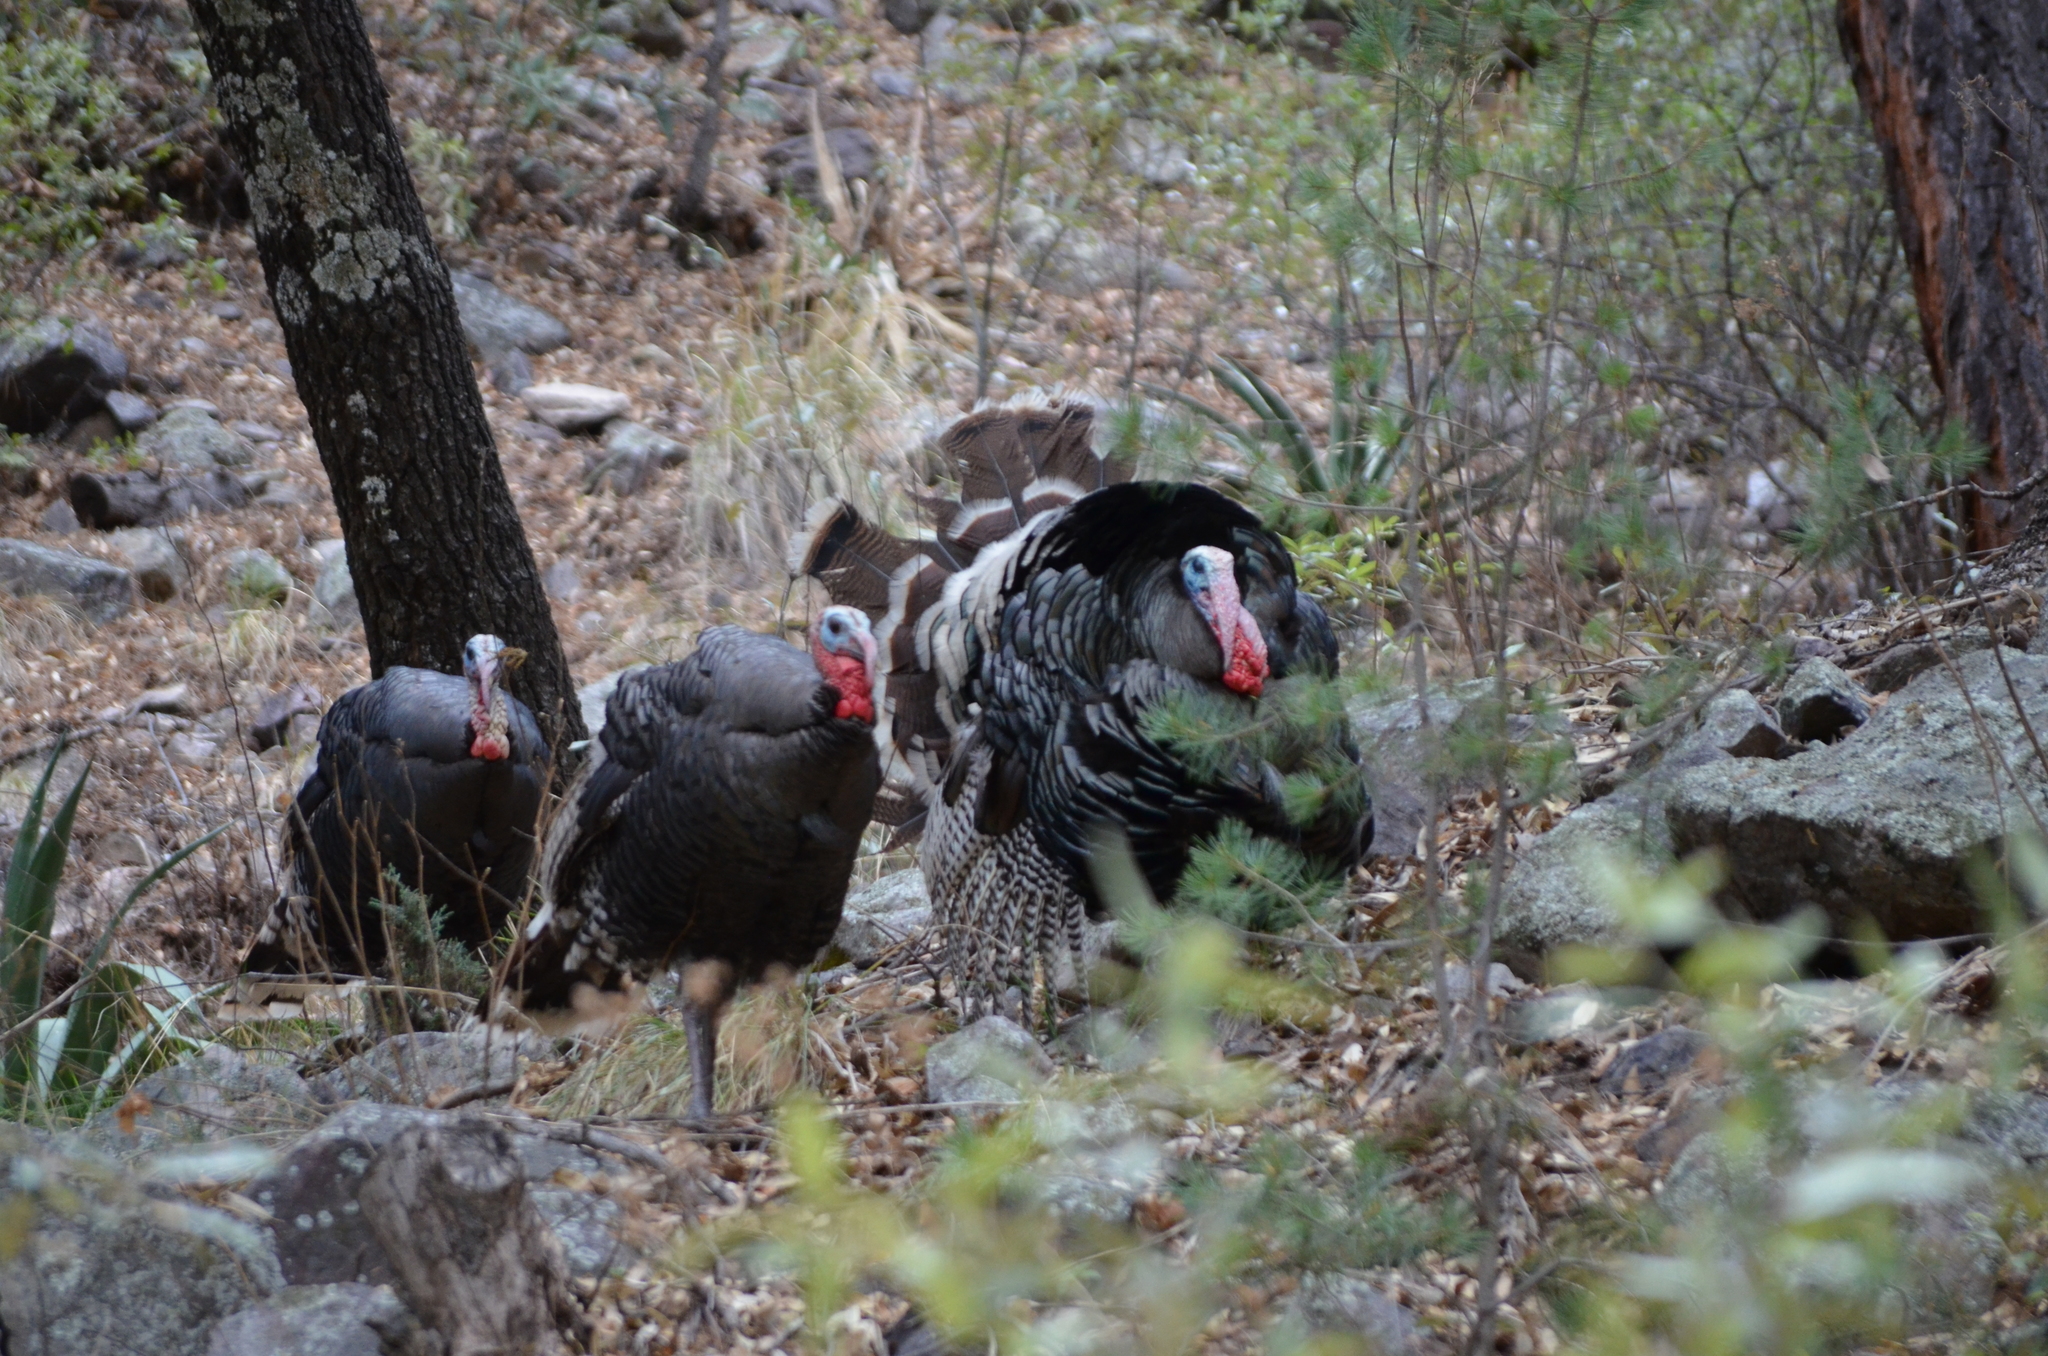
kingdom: Animalia
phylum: Chordata
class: Aves
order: Galliformes
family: Phasianidae
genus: Meleagris
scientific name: Meleagris gallopavo
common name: Wild turkey
